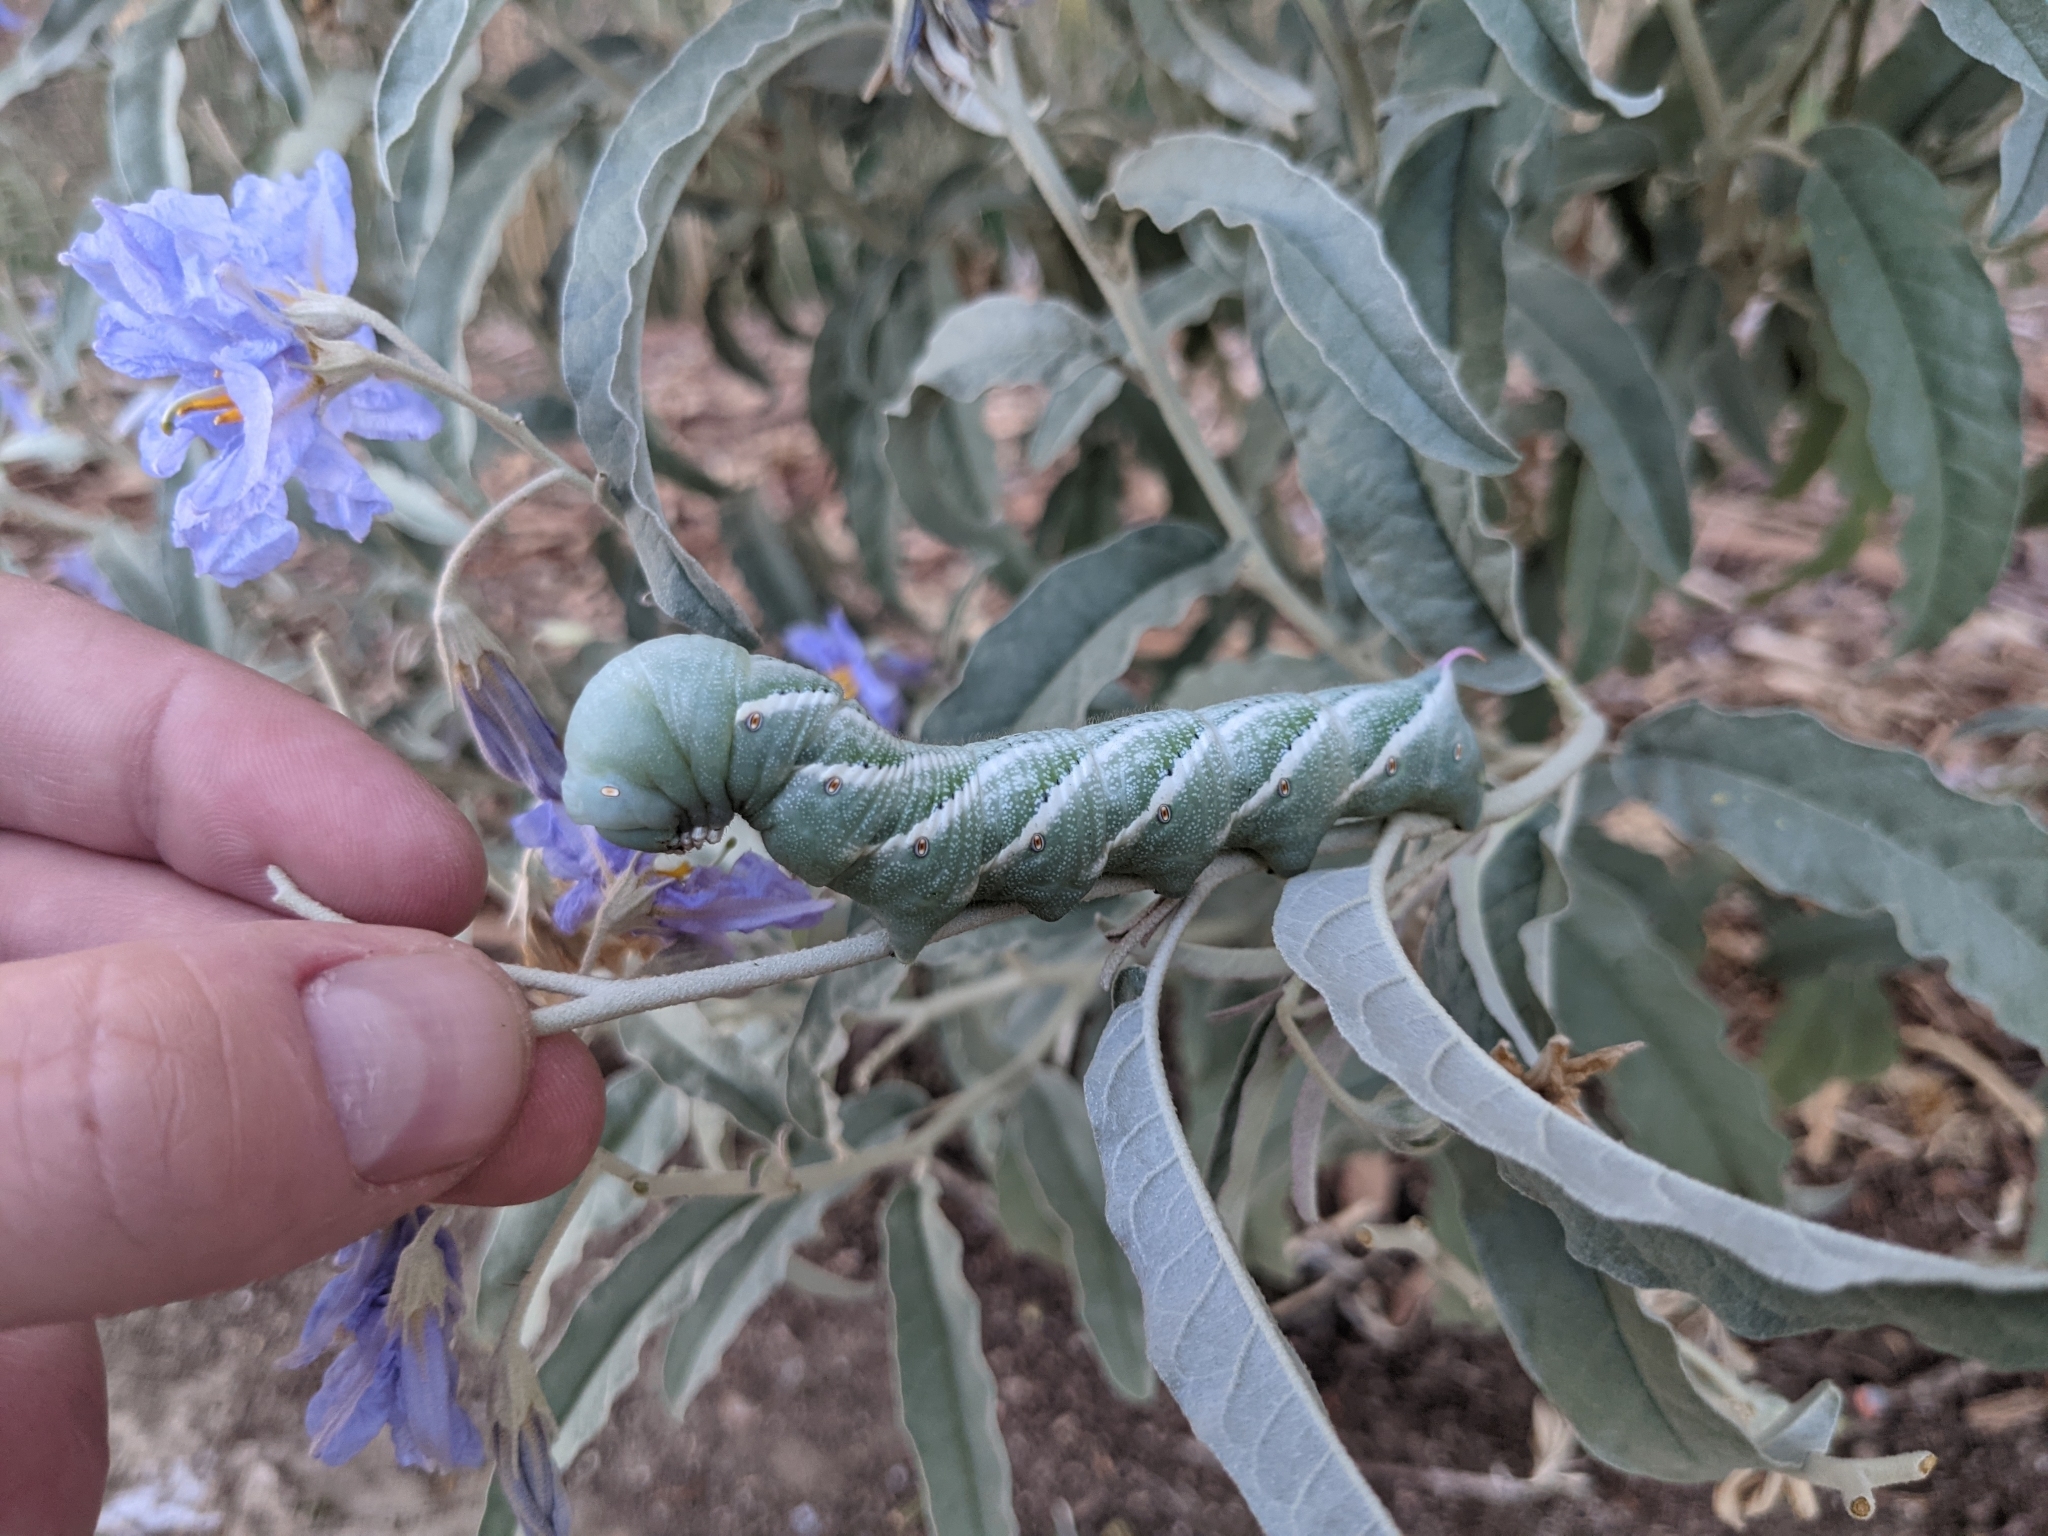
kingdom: Animalia
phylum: Arthropoda
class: Insecta
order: Lepidoptera
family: Sphingidae
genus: Manduca
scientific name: Manduca sexta
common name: Carolina sphinx
